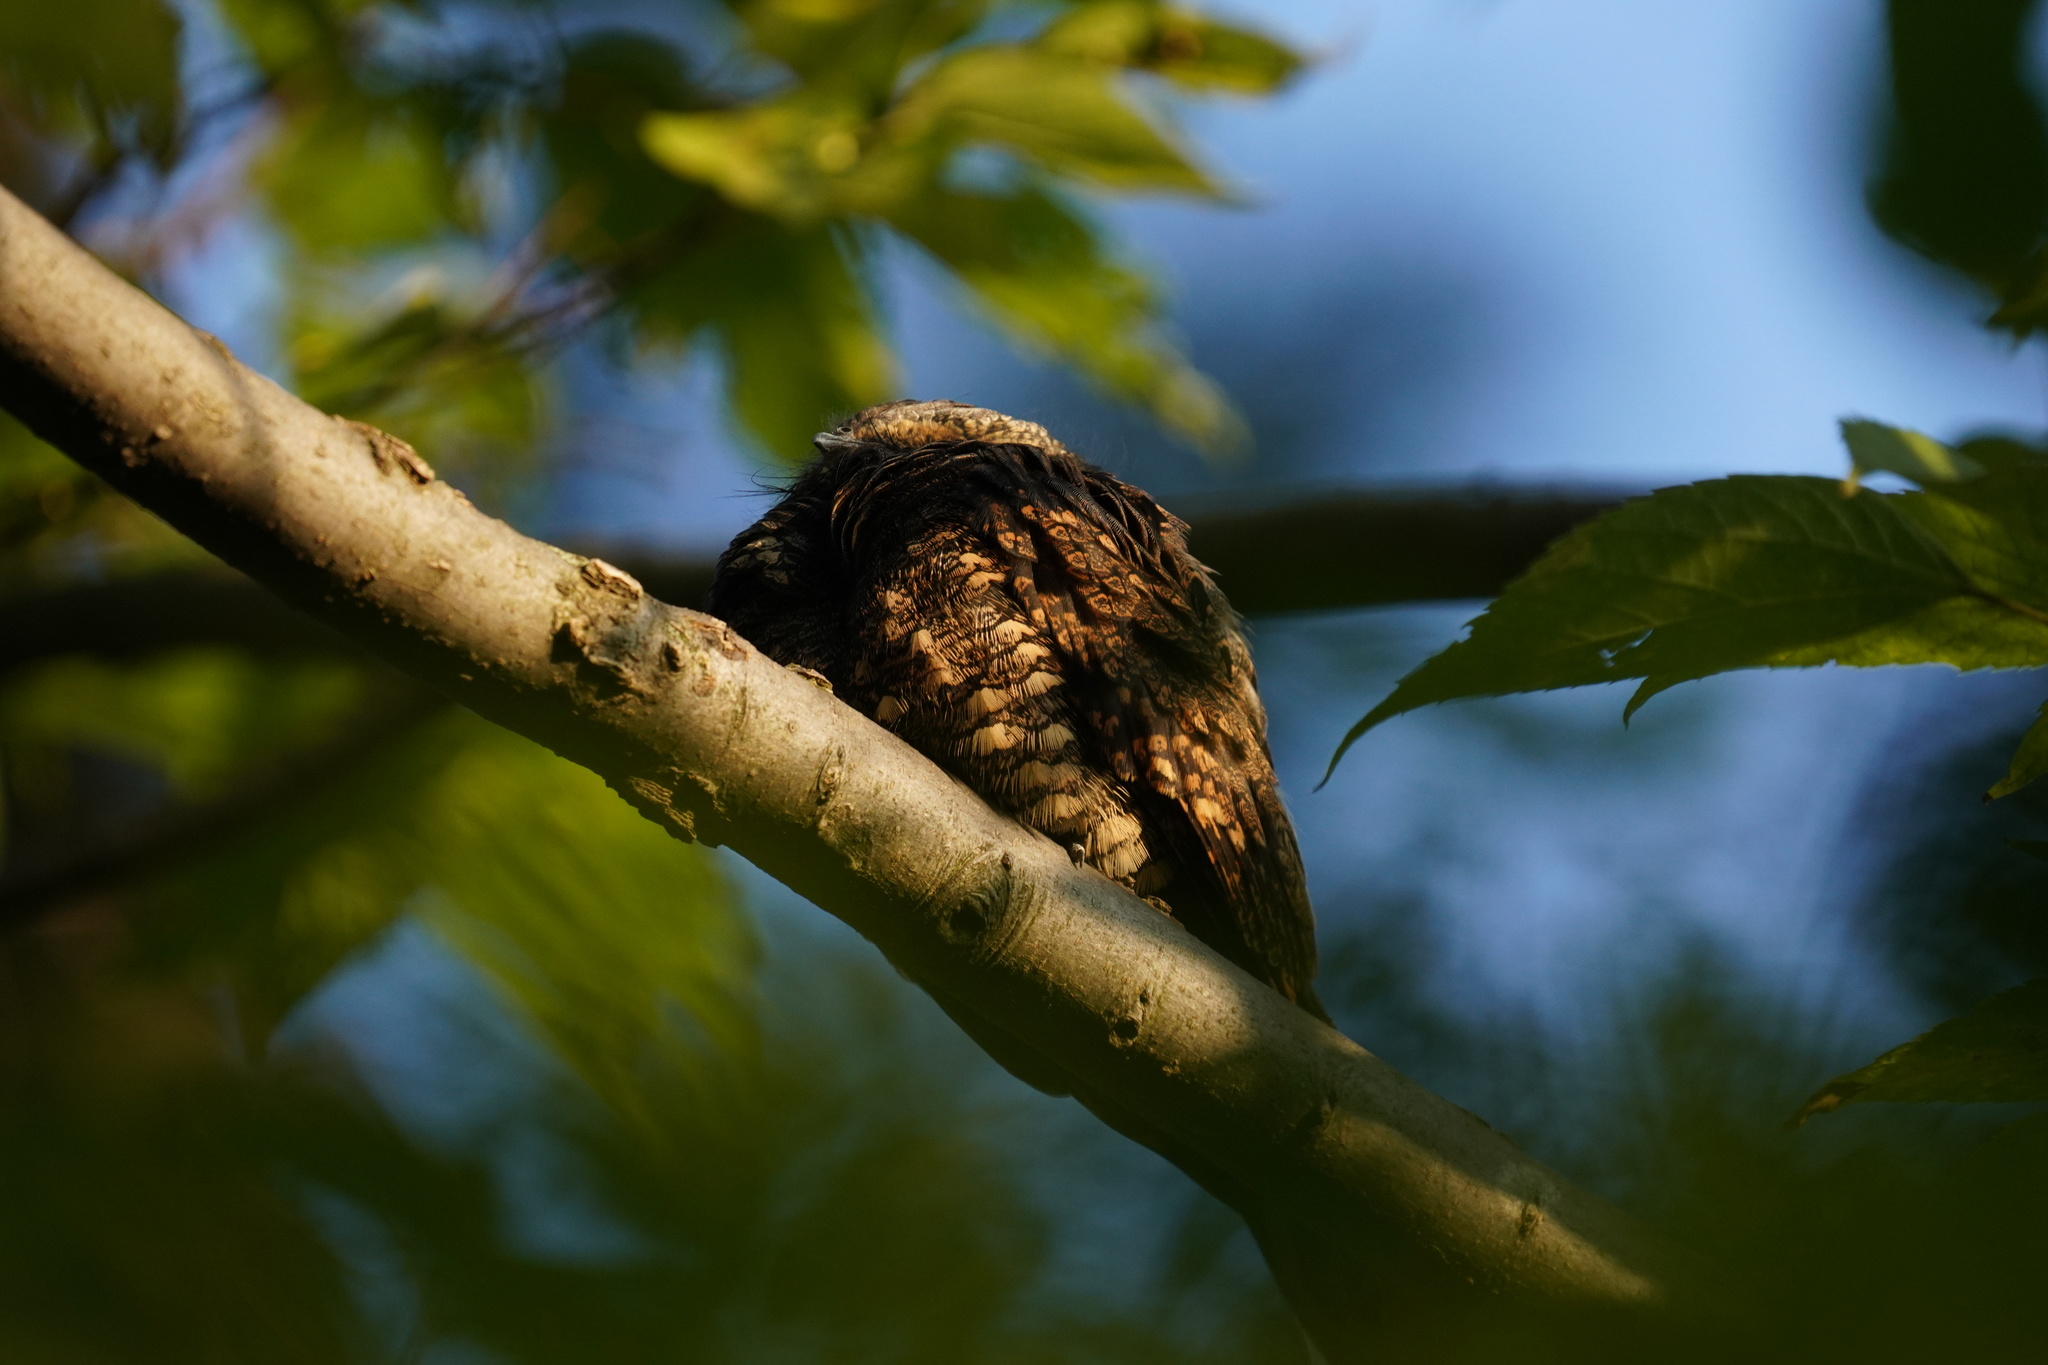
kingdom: Animalia
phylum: Chordata
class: Aves
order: Caprimulgiformes
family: Caprimulgidae
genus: Antrostomus
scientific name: Antrostomus vociferus
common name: Eastern whip-poor-will
